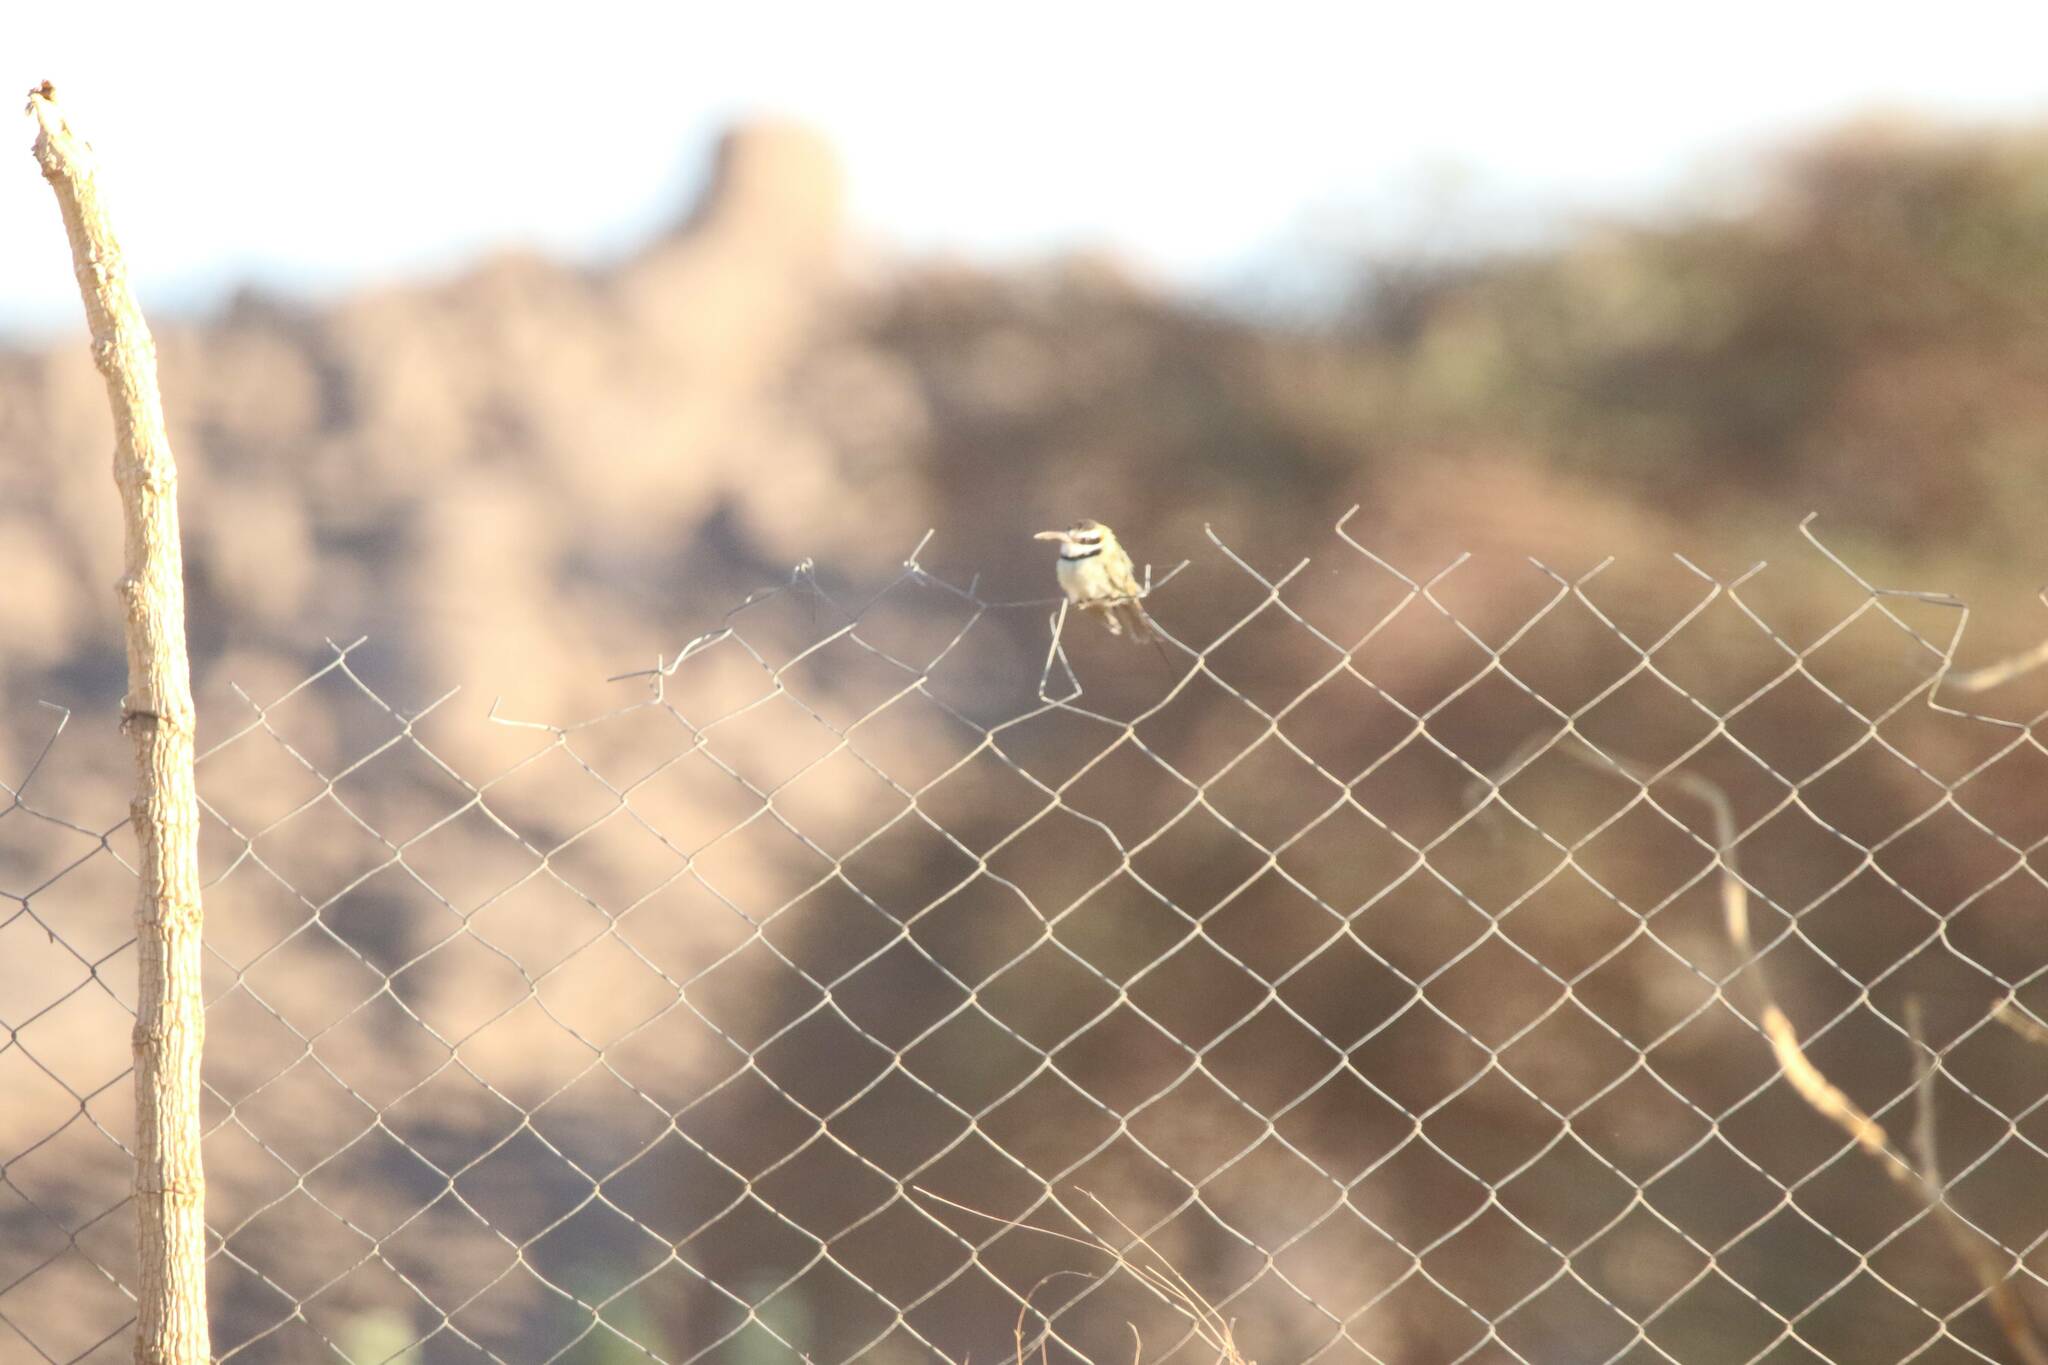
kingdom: Animalia
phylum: Chordata
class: Aves
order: Coraciiformes
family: Meropidae
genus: Merops
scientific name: Merops albicollis
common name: White-throated bee-eater
